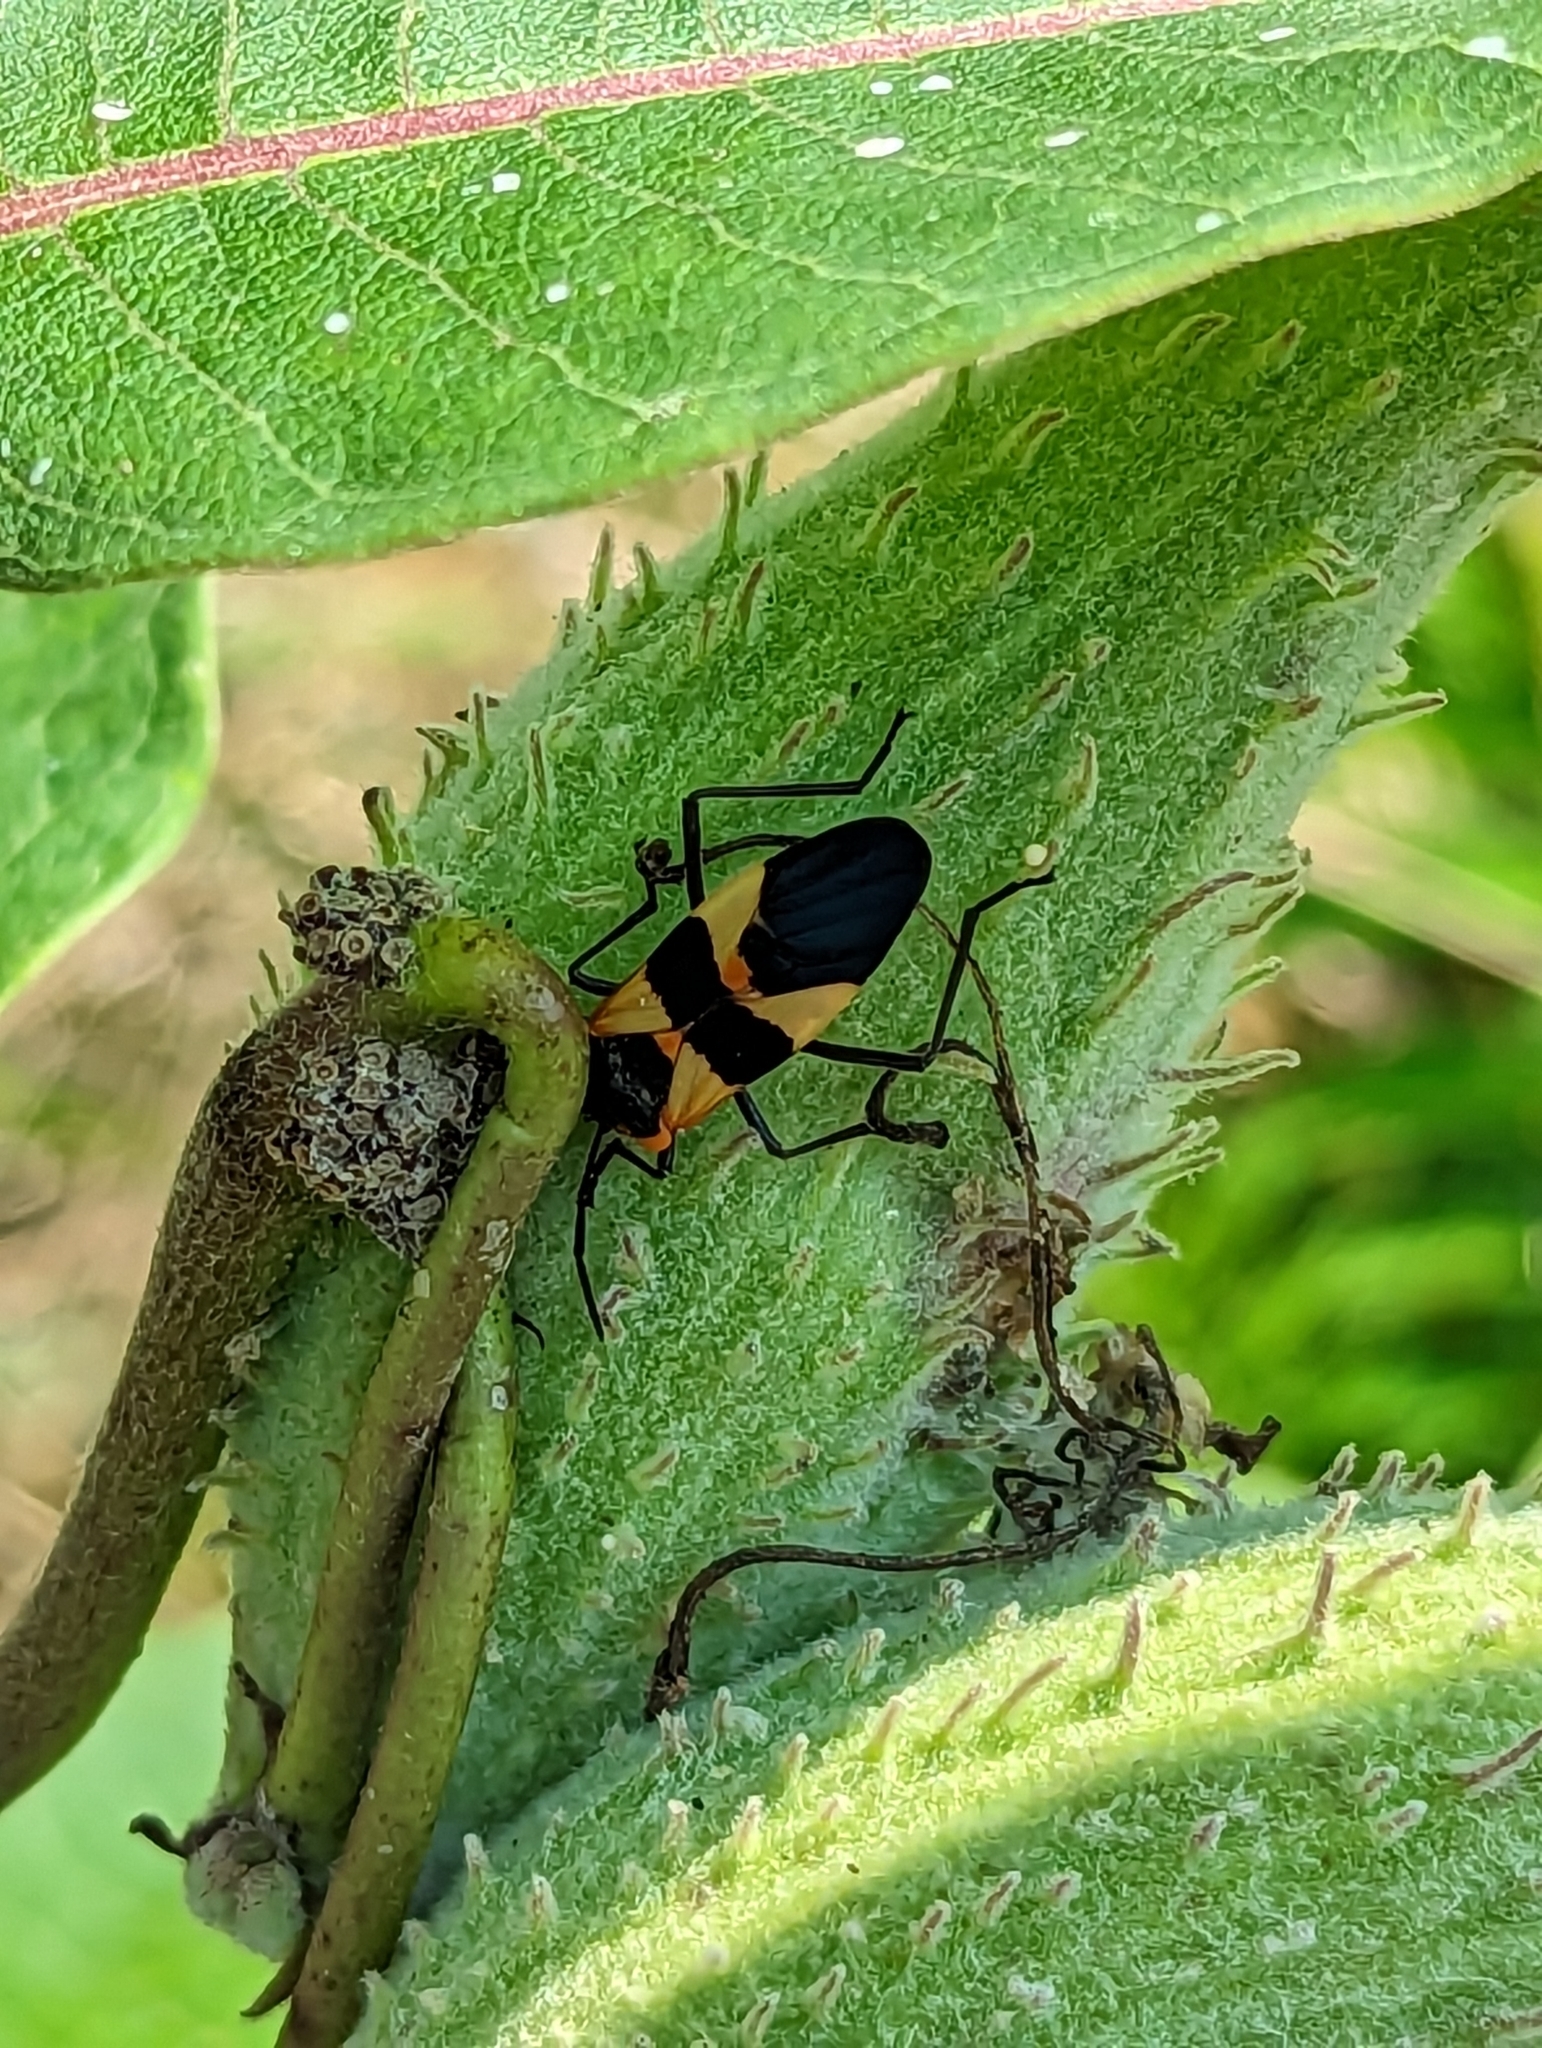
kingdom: Animalia
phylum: Arthropoda
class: Insecta
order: Hemiptera
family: Lygaeidae
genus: Oncopeltus
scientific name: Oncopeltus fasciatus
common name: Large milkweed bug
